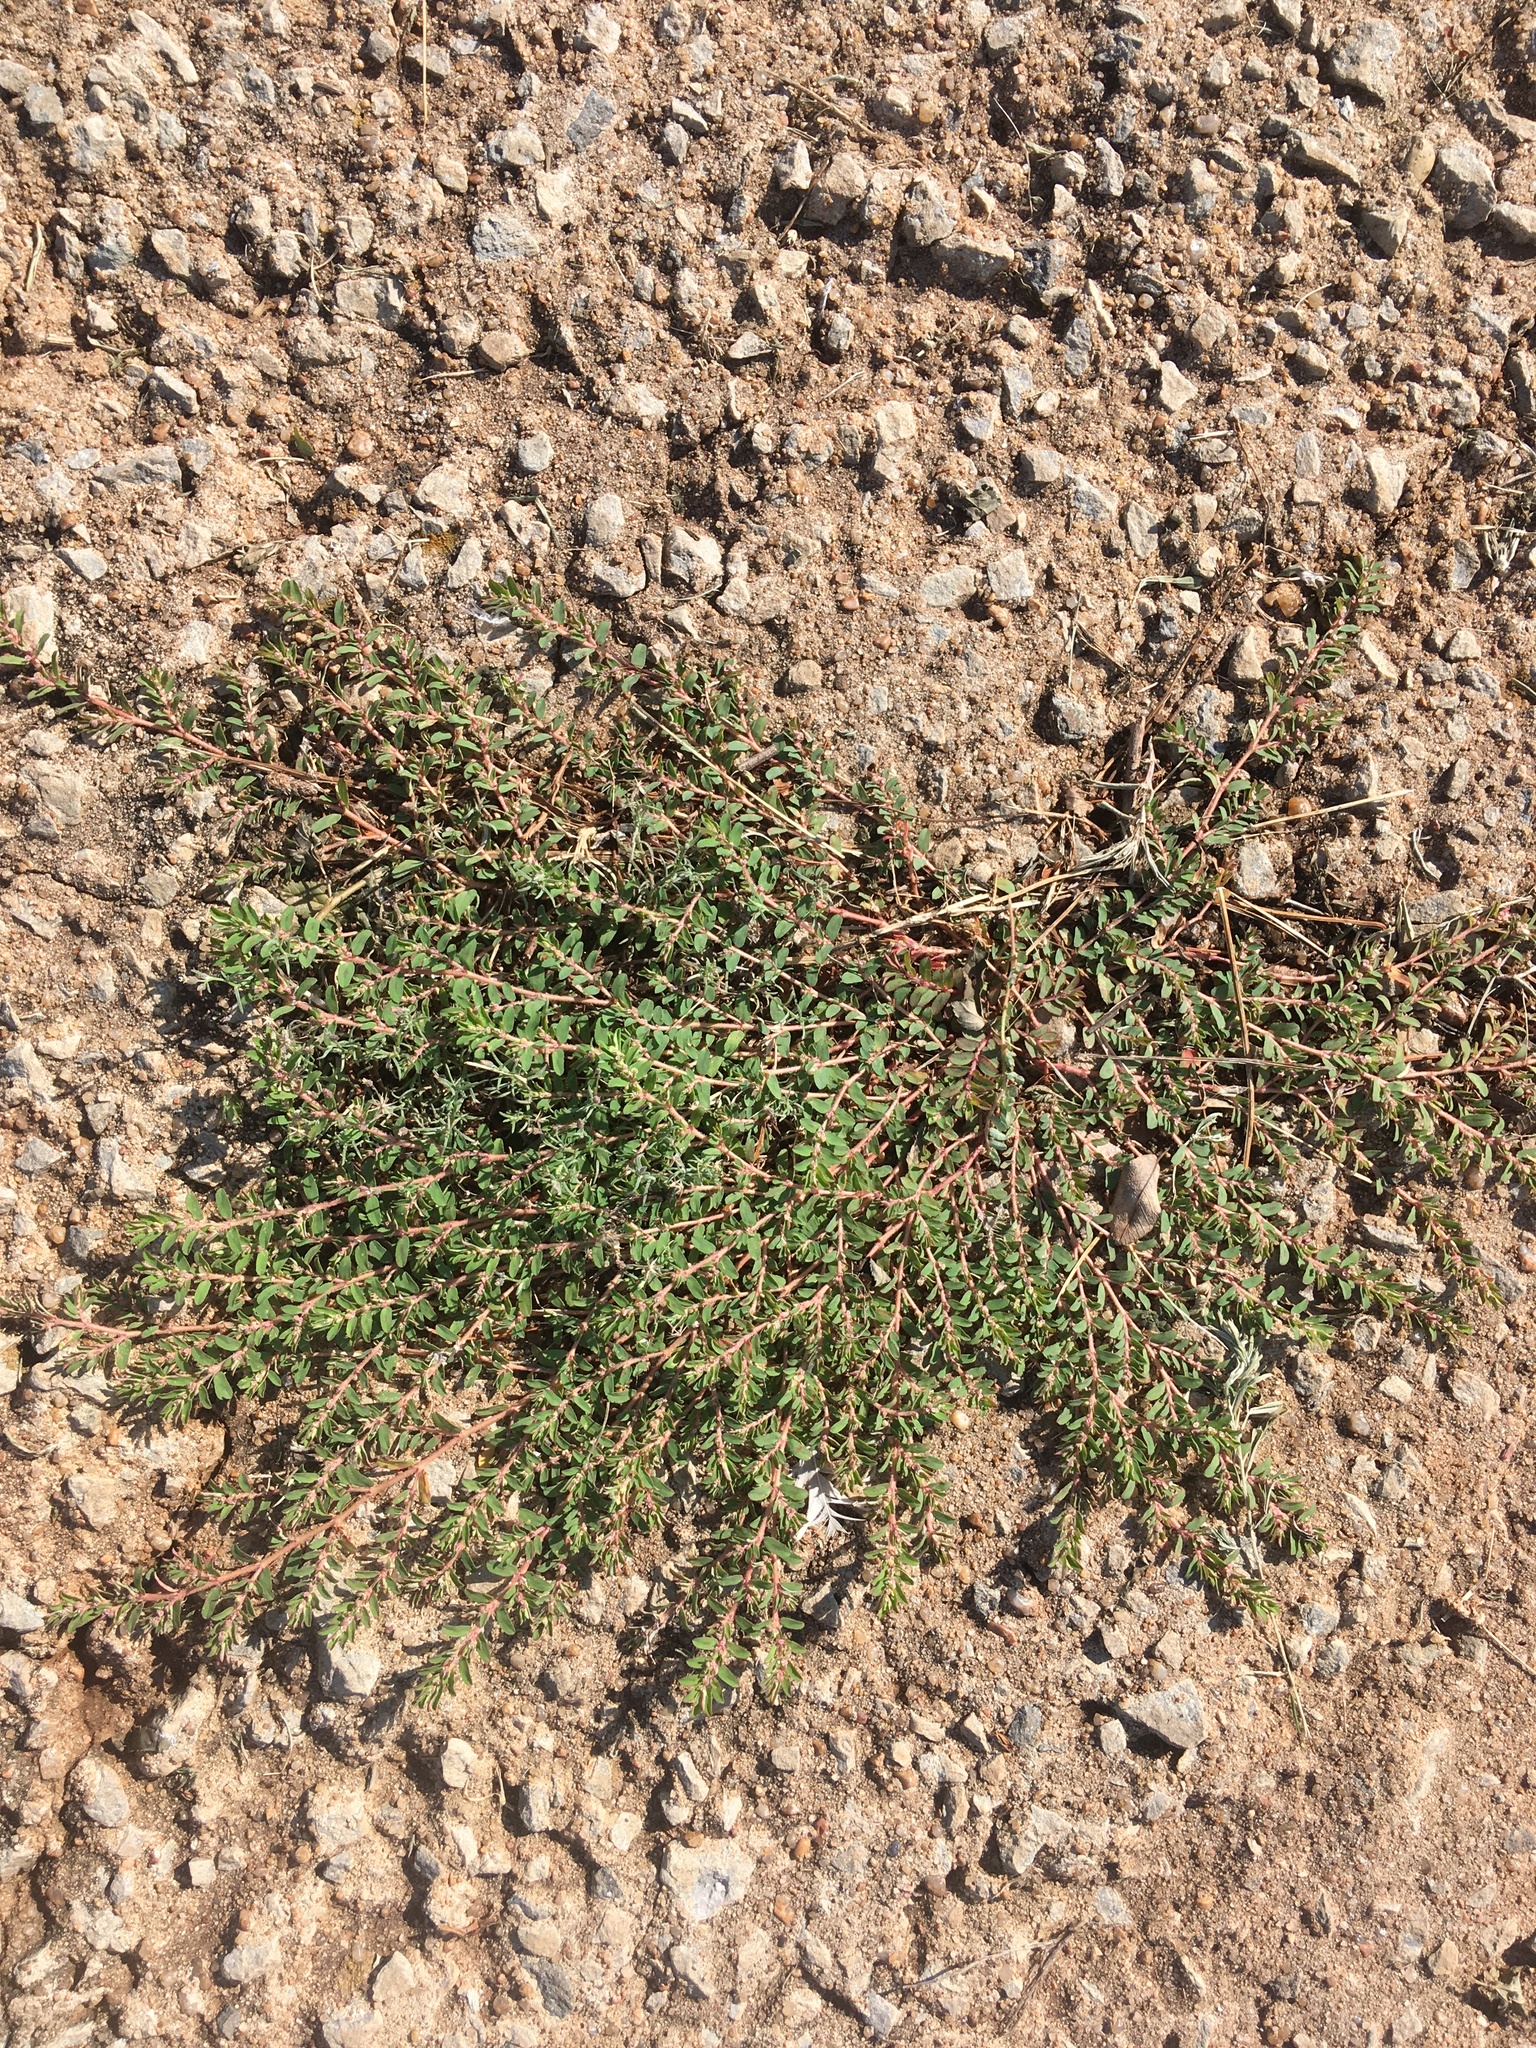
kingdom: Plantae
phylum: Tracheophyta
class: Magnoliopsida
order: Malpighiales
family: Euphorbiaceae
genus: Euphorbia
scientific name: Euphorbia maculata
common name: Spotted spurge
